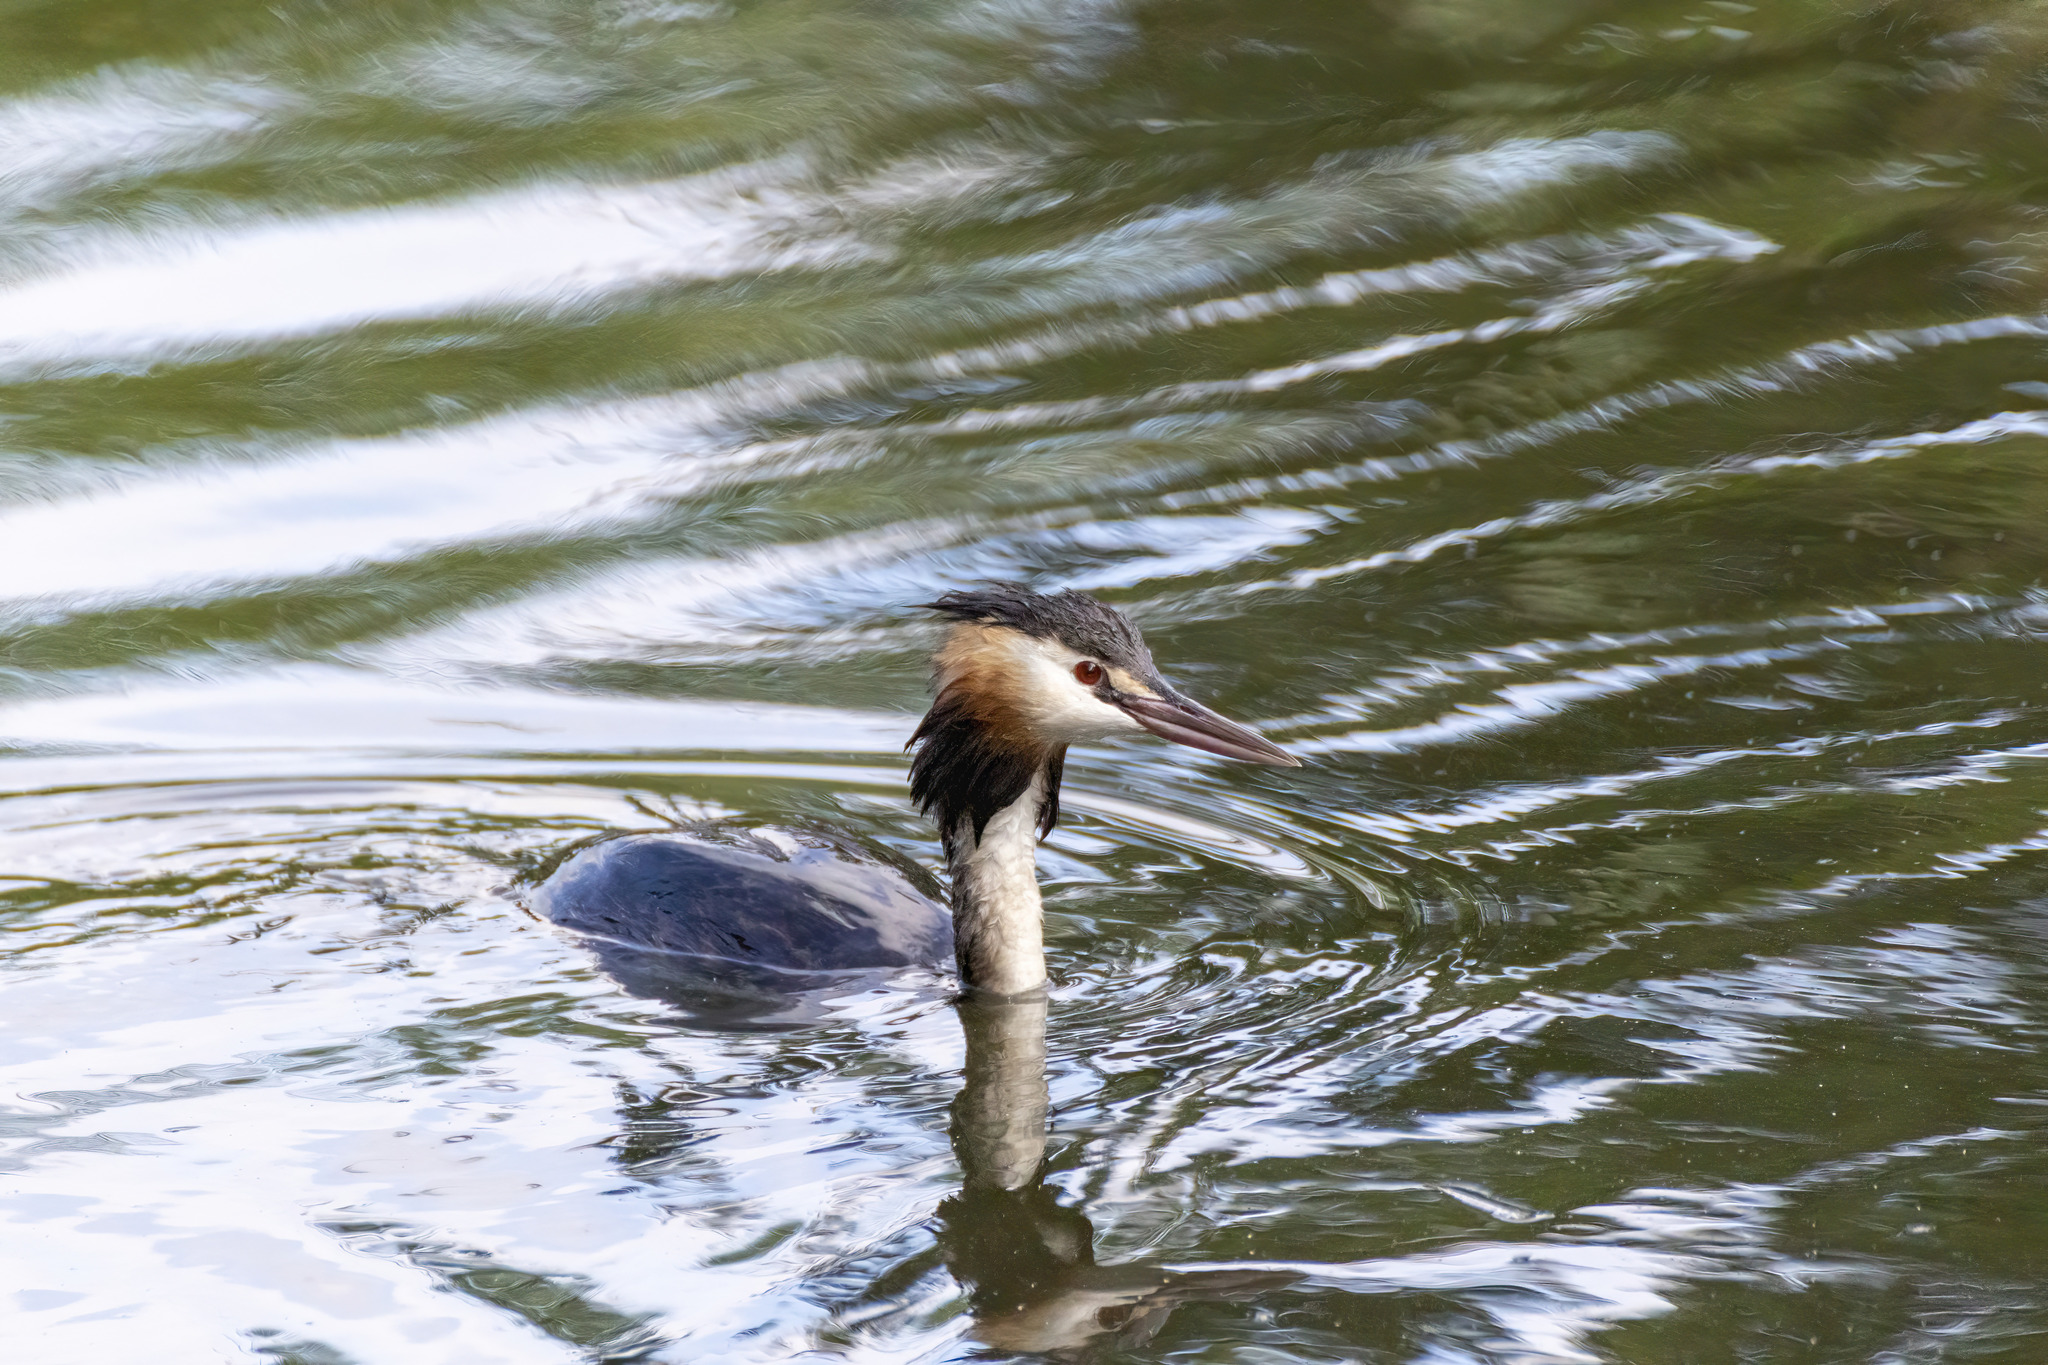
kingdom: Animalia
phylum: Chordata
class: Aves
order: Podicipediformes
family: Podicipedidae
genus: Podiceps
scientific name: Podiceps cristatus
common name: Great crested grebe
